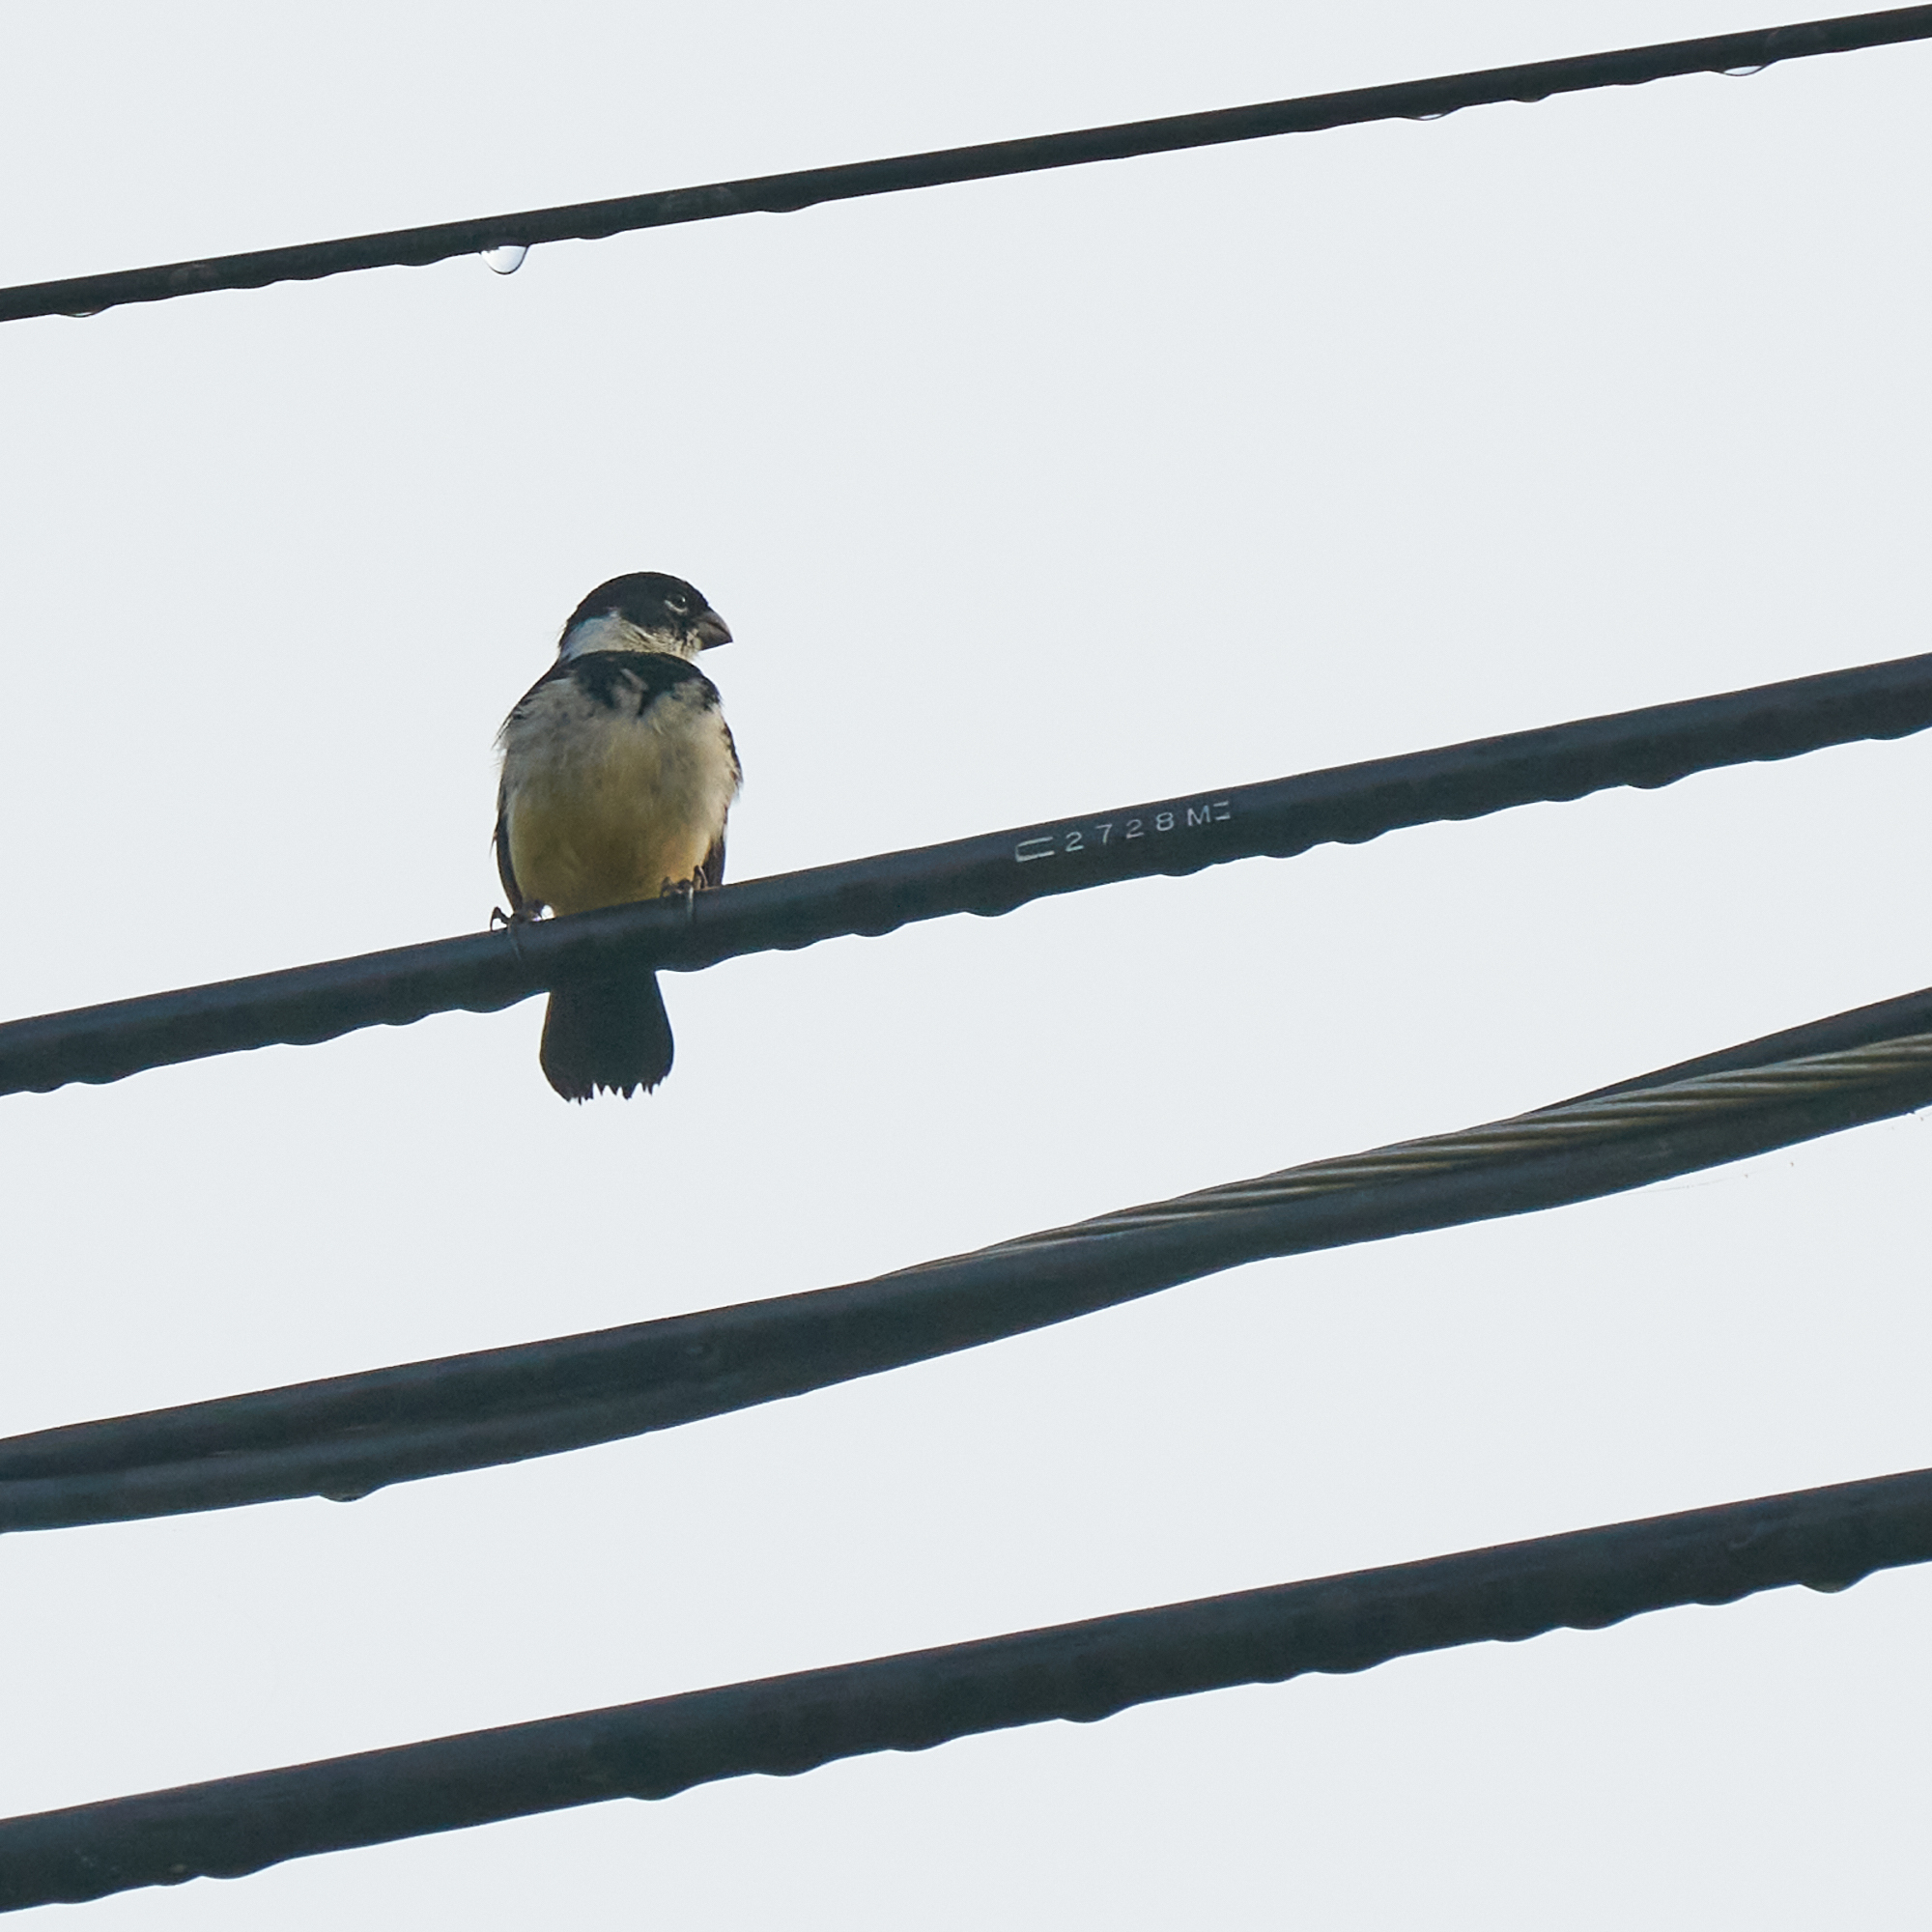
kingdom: Animalia
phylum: Chordata
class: Aves
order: Passeriformes
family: Thraupidae
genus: Sporophila
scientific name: Sporophila morelleti
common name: Morelet's seedeater
